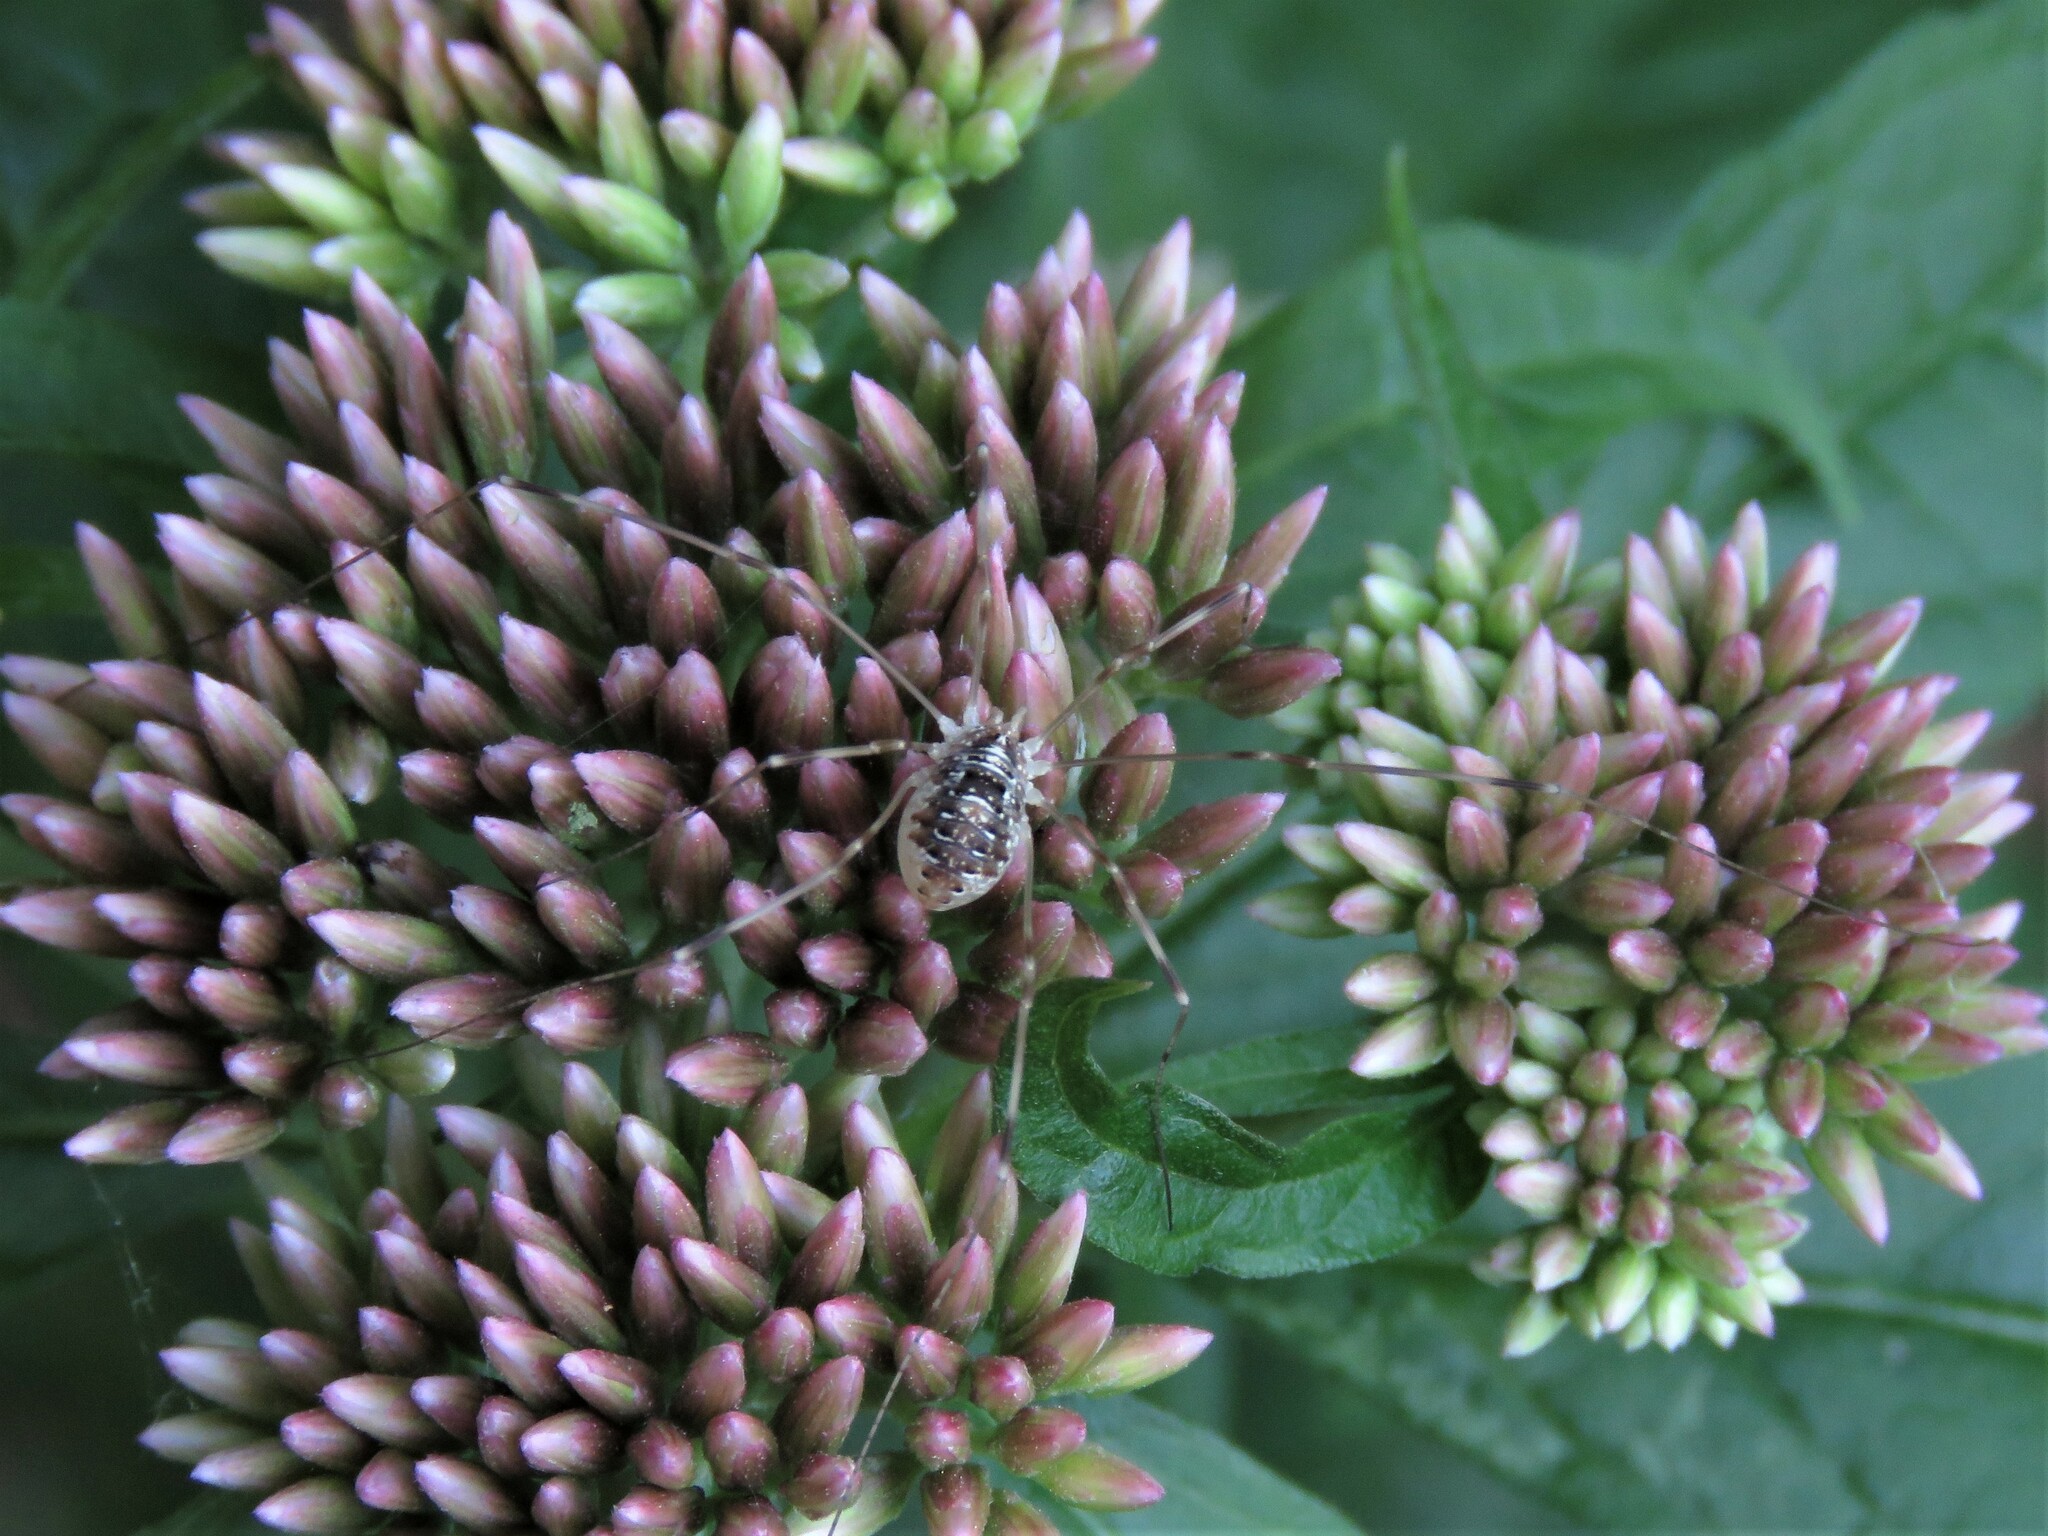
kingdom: Animalia
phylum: Arthropoda
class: Arachnida
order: Opiliones
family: Phalangiidae
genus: Opilio
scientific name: Opilio canestrinii
